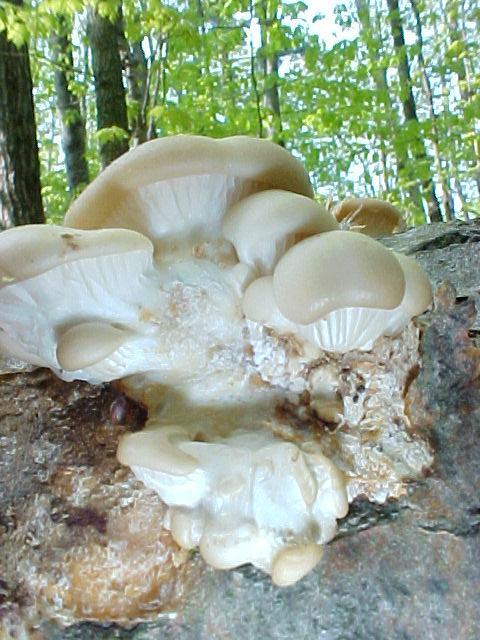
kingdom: Fungi
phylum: Basidiomycota
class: Agaricomycetes
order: Agaricales
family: Pleurotaceae
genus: Pleurotus
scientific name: Pleurotus ostreatus
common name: Oyster mushroom
